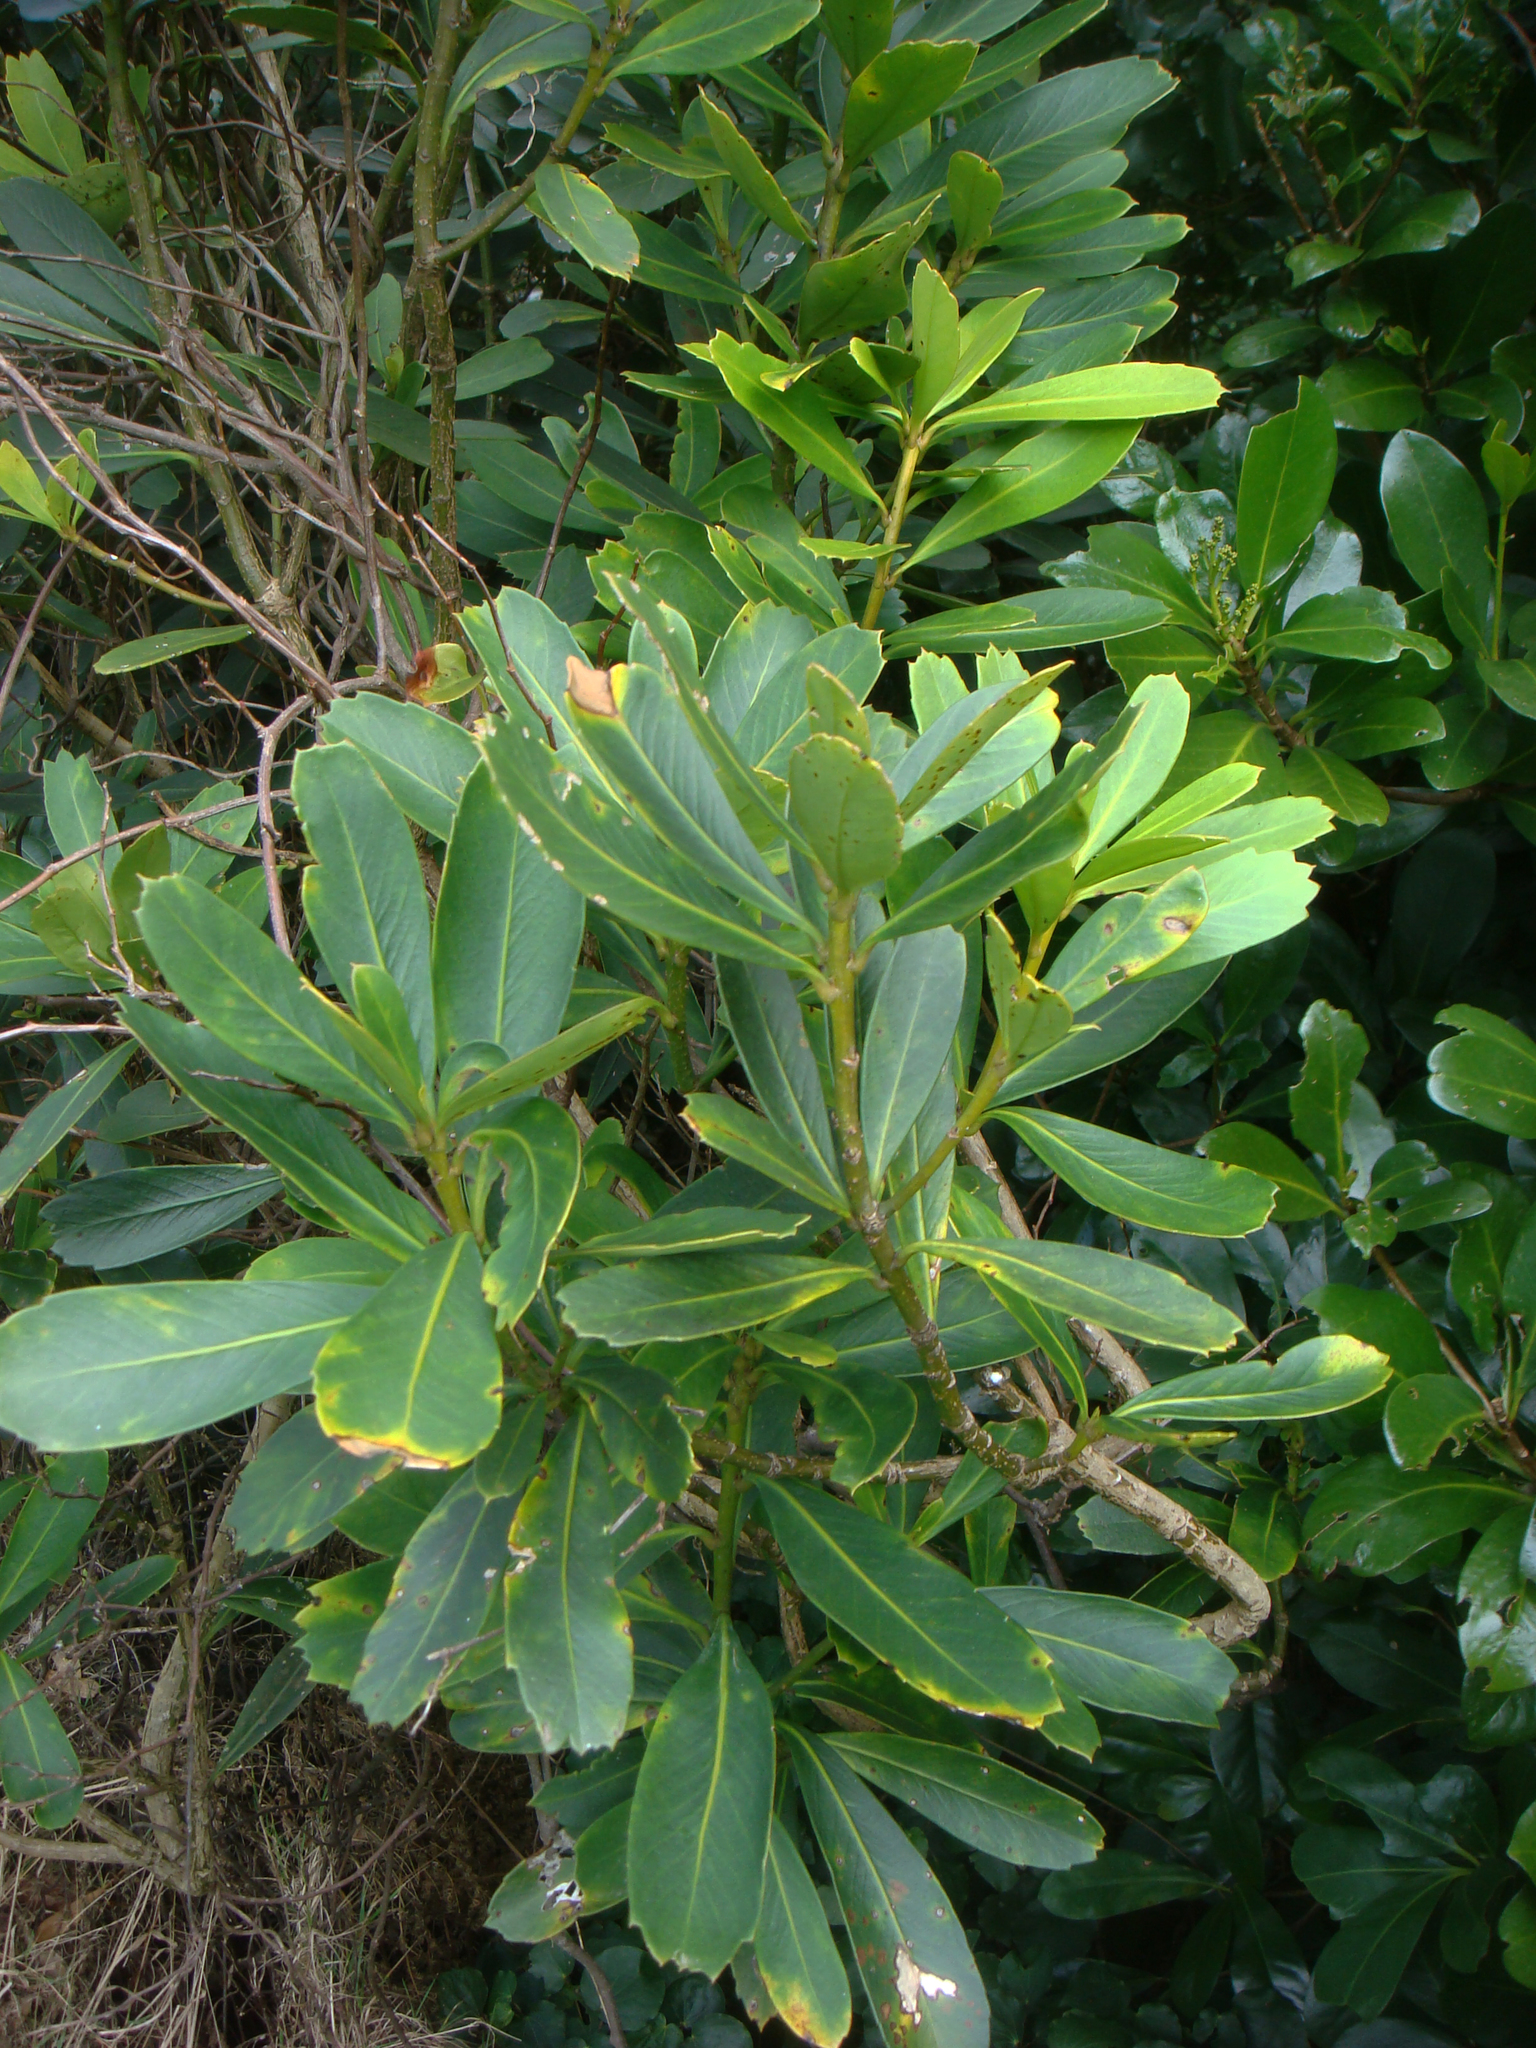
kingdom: Plantae
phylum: Tracheophyta
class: Magnoliopsida
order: Apiales
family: Araliaceae
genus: Pseudopanax
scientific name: Pseudopanax chathamicus
